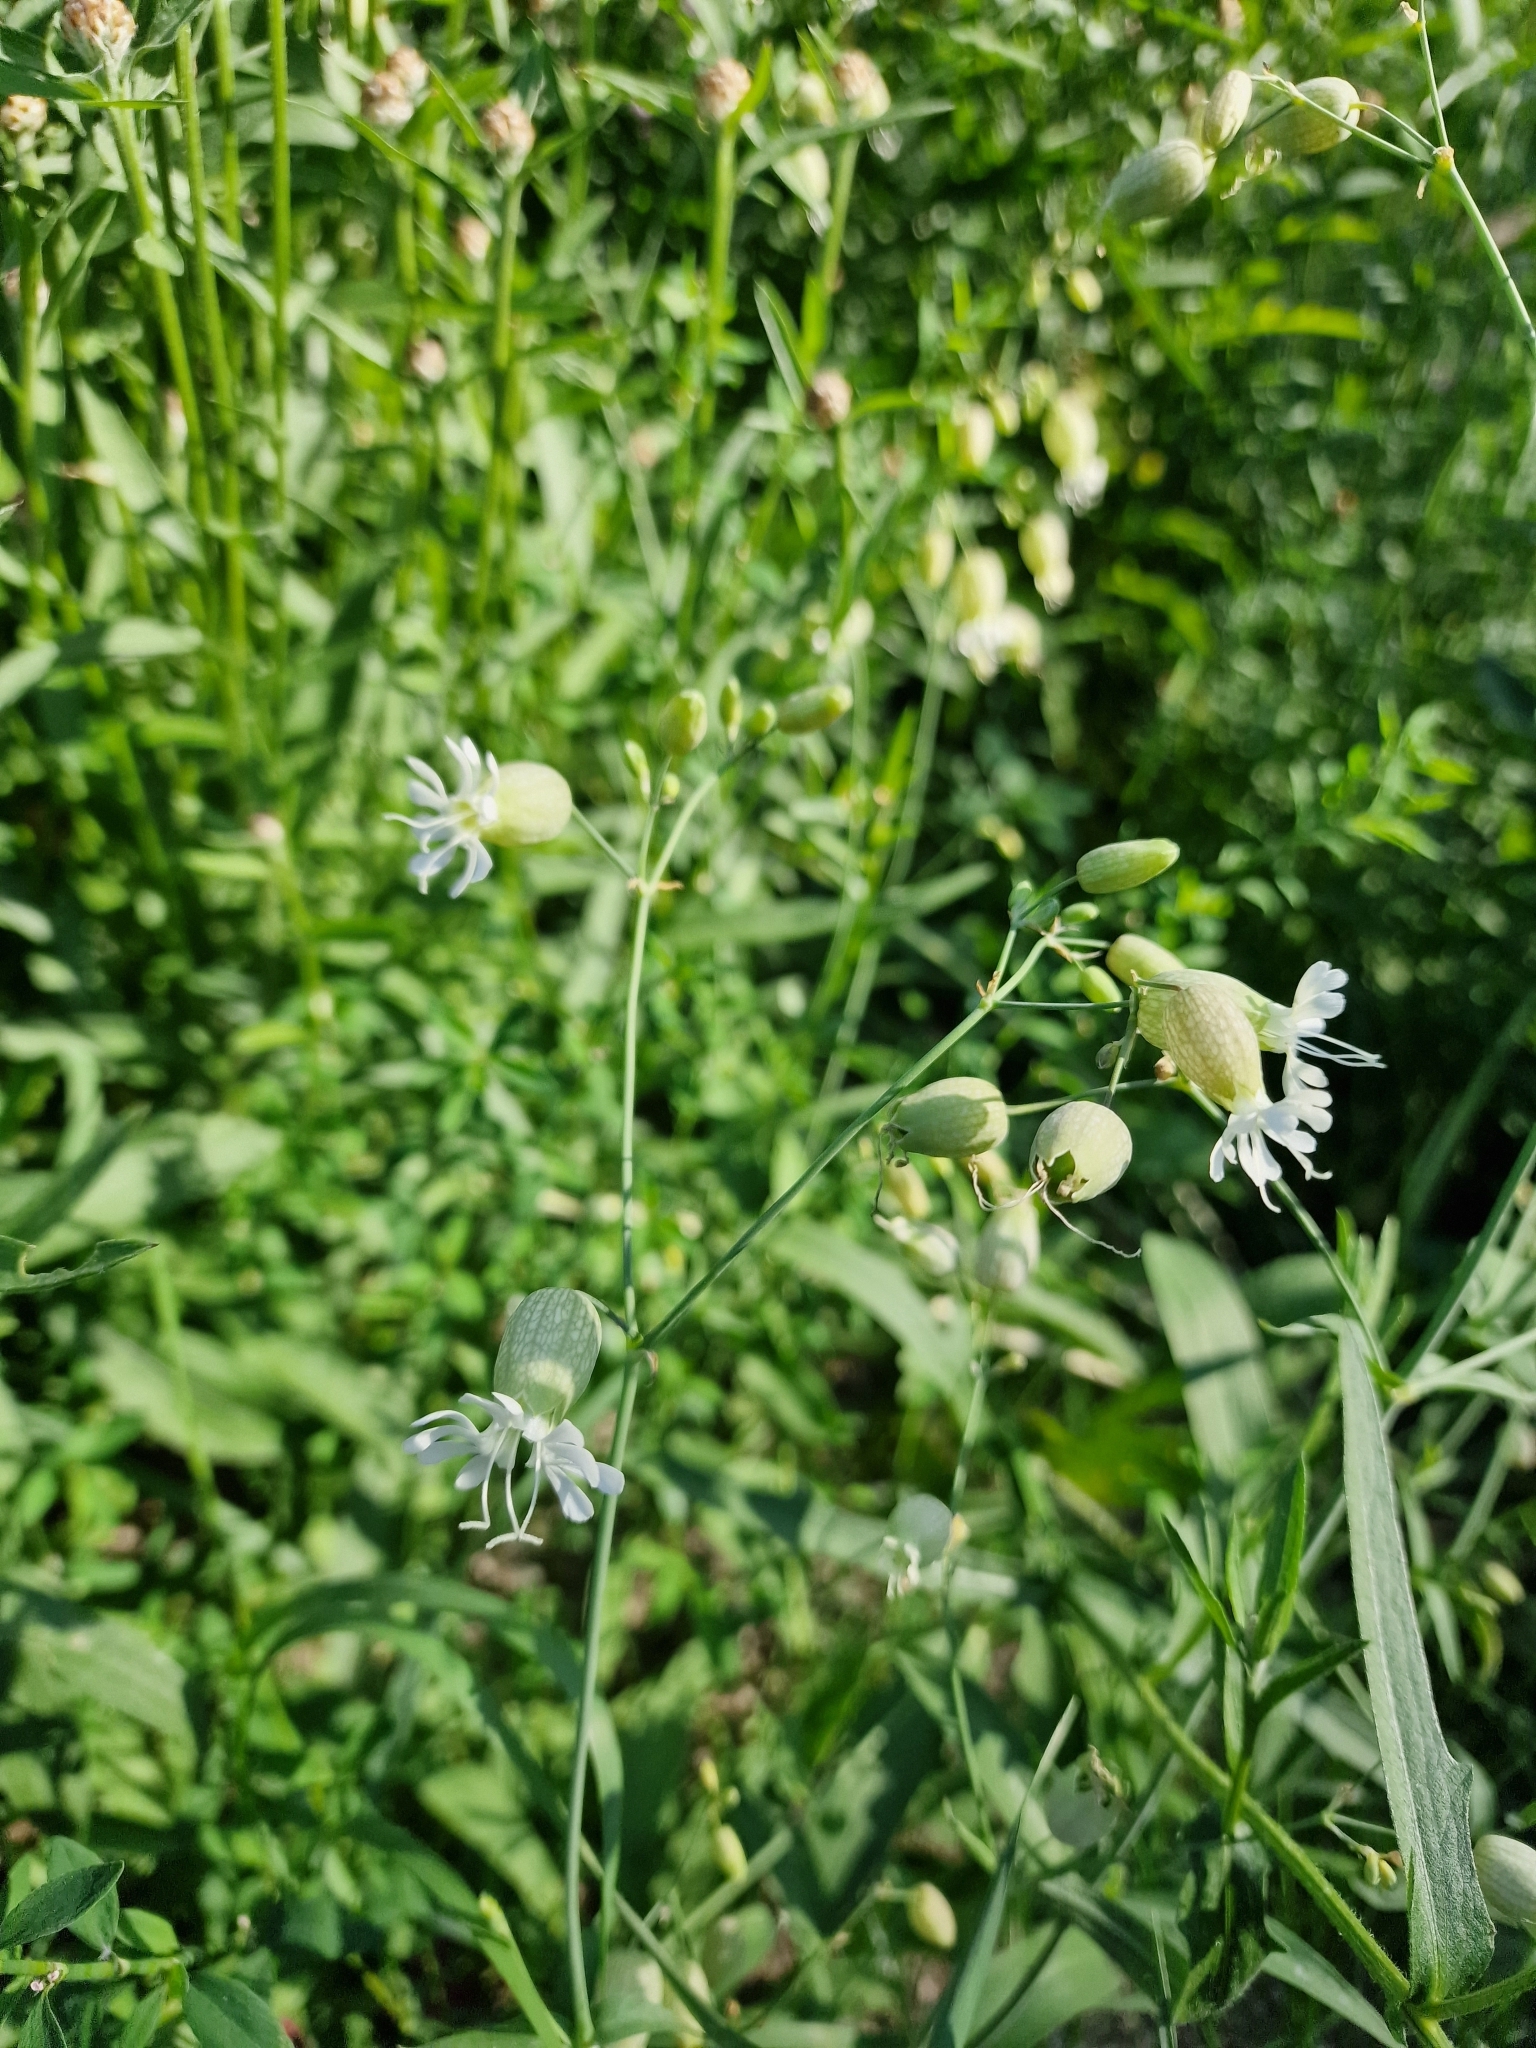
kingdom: Plantae
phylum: Tracheophyta
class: Magnoliopsida
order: Caryophyllales
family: Caryophyllaceae
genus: Silene
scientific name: Silene vulgaris
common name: Bladder campion
